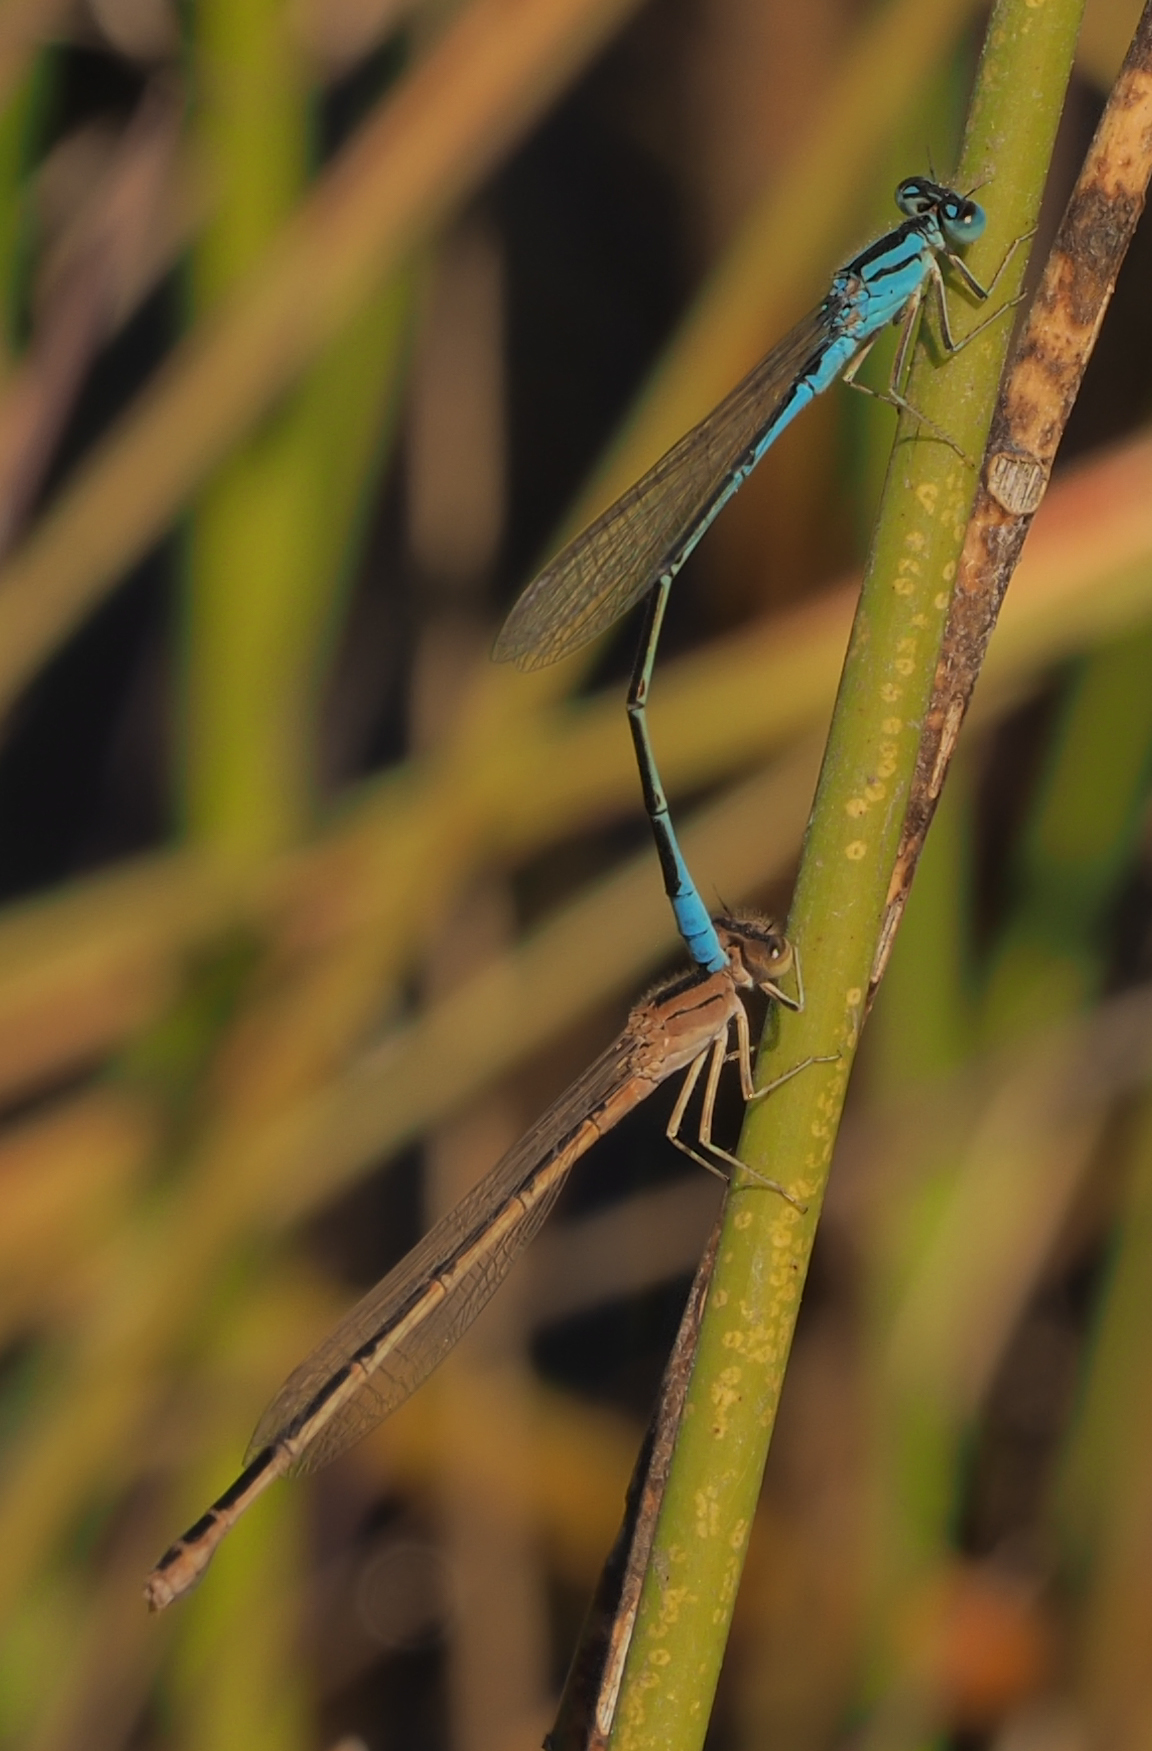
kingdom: Animalia
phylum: Arthropoda
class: Insecta
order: Odonata
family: Coenagrionidae
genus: Pseudagrion
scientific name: Pseudagrion assegaii
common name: Assegaai sprite
